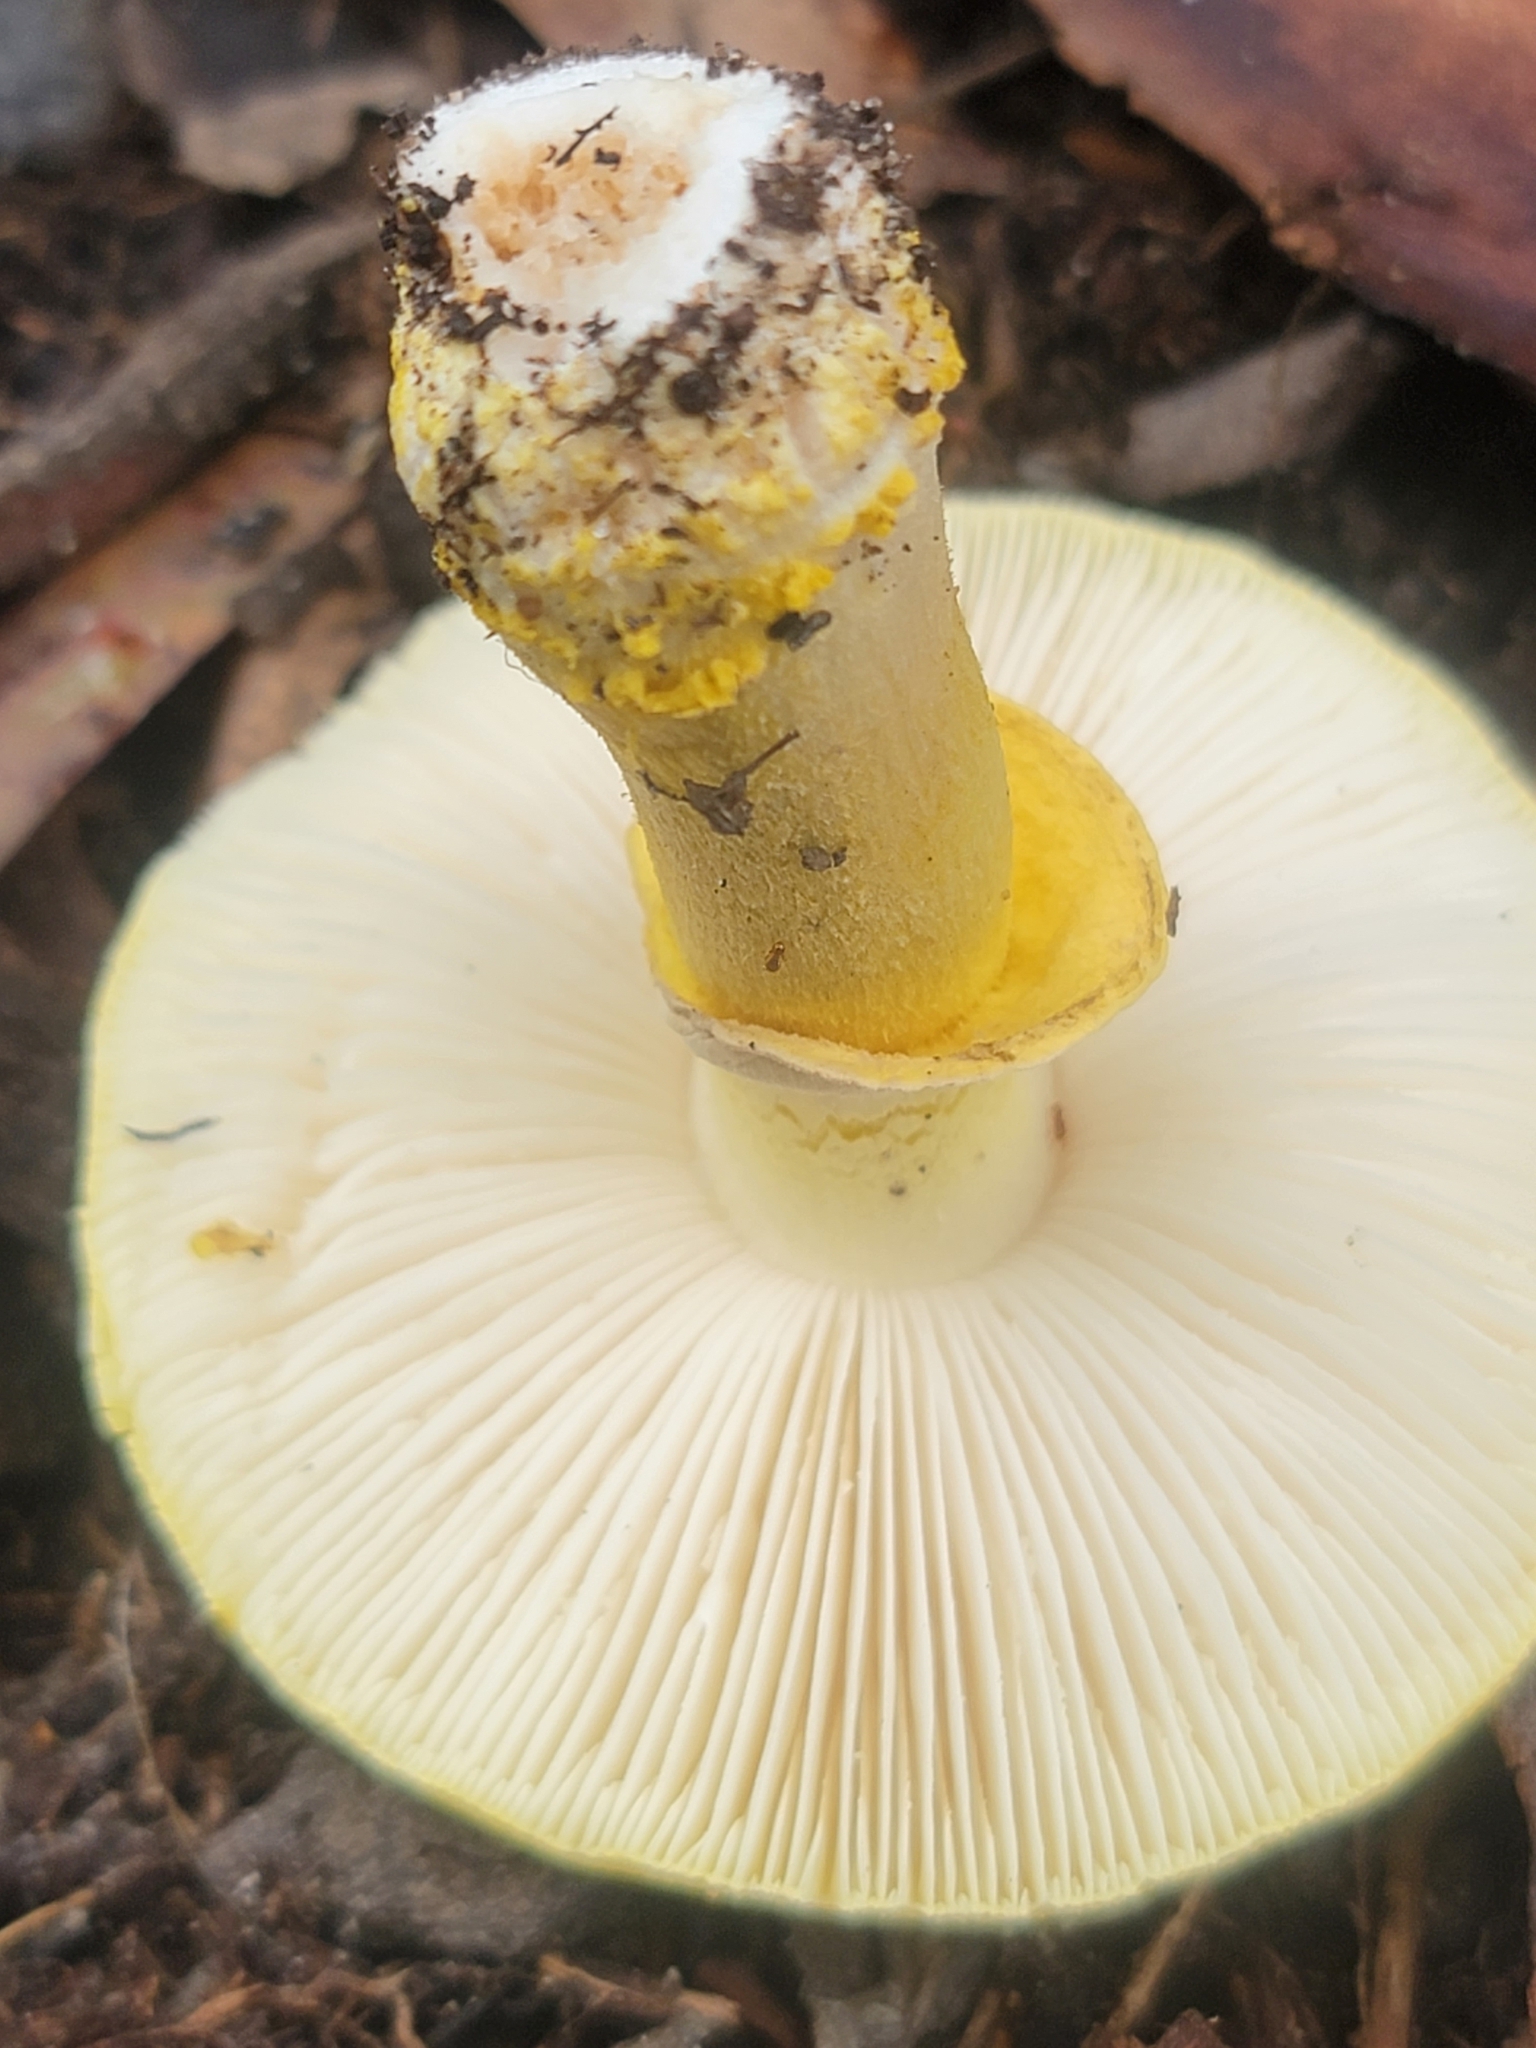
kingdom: Fungi
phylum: Basidiomycota
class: Agaricomycetes
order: Agaricales
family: Amanitaceae
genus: Amanita
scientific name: Amanita flavella
